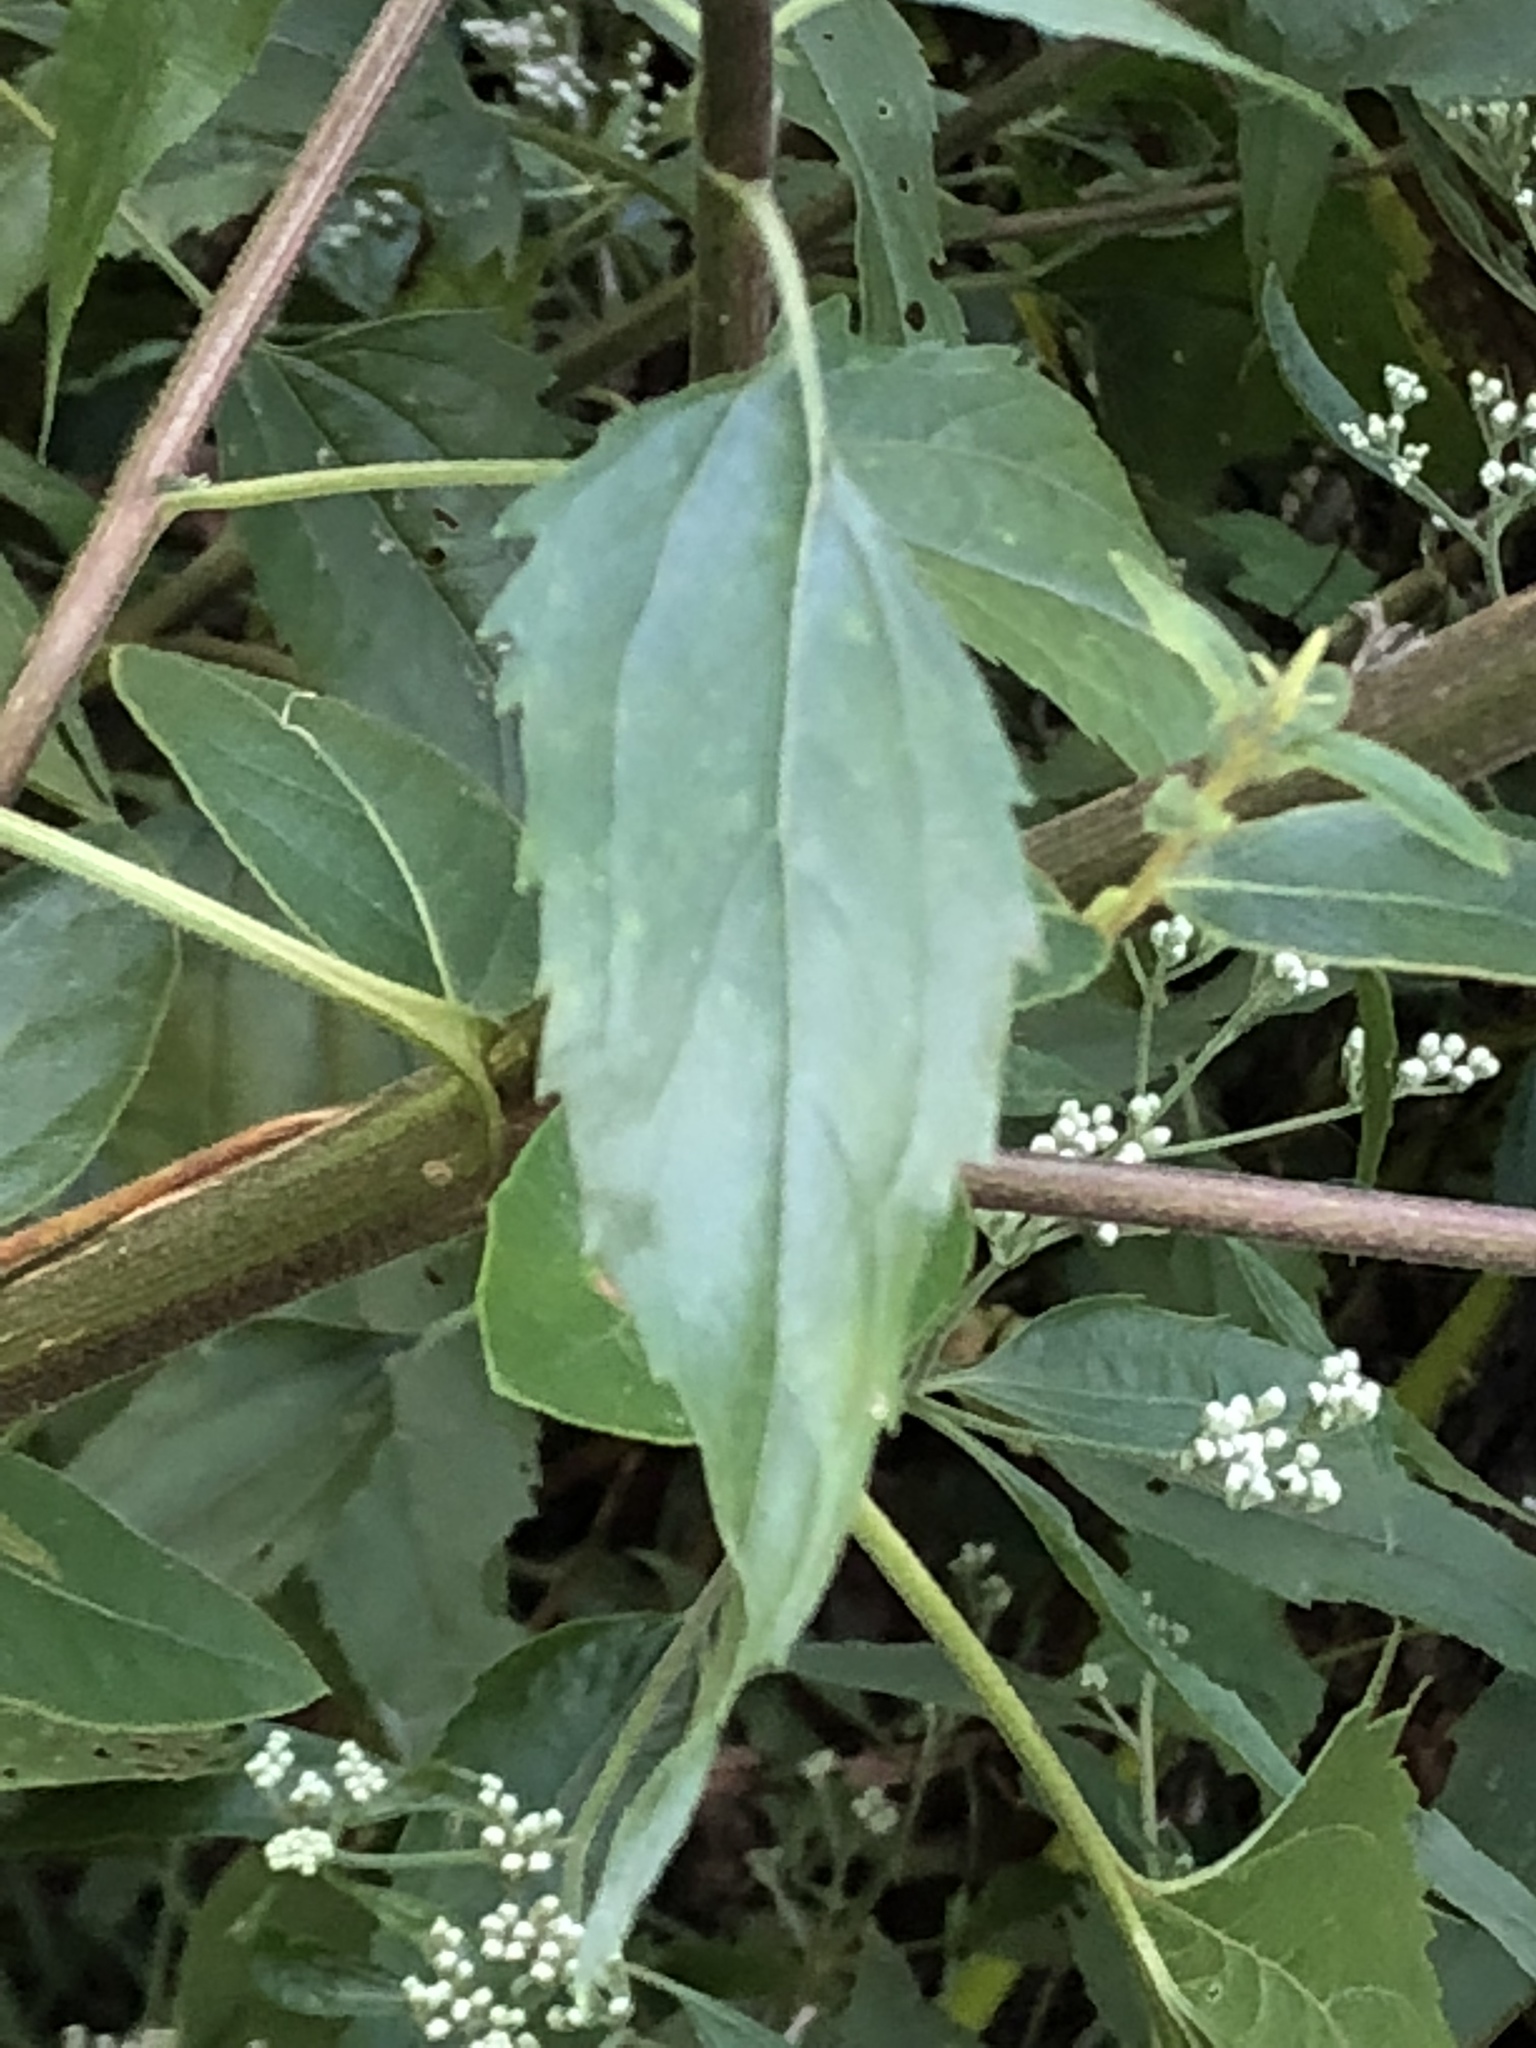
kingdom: Plantae
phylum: Tracheophyta
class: Magnoliopsida
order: Asterales
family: Asteraceae
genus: Eupatorium
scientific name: Eupatorium serotinum
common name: Late boneset
